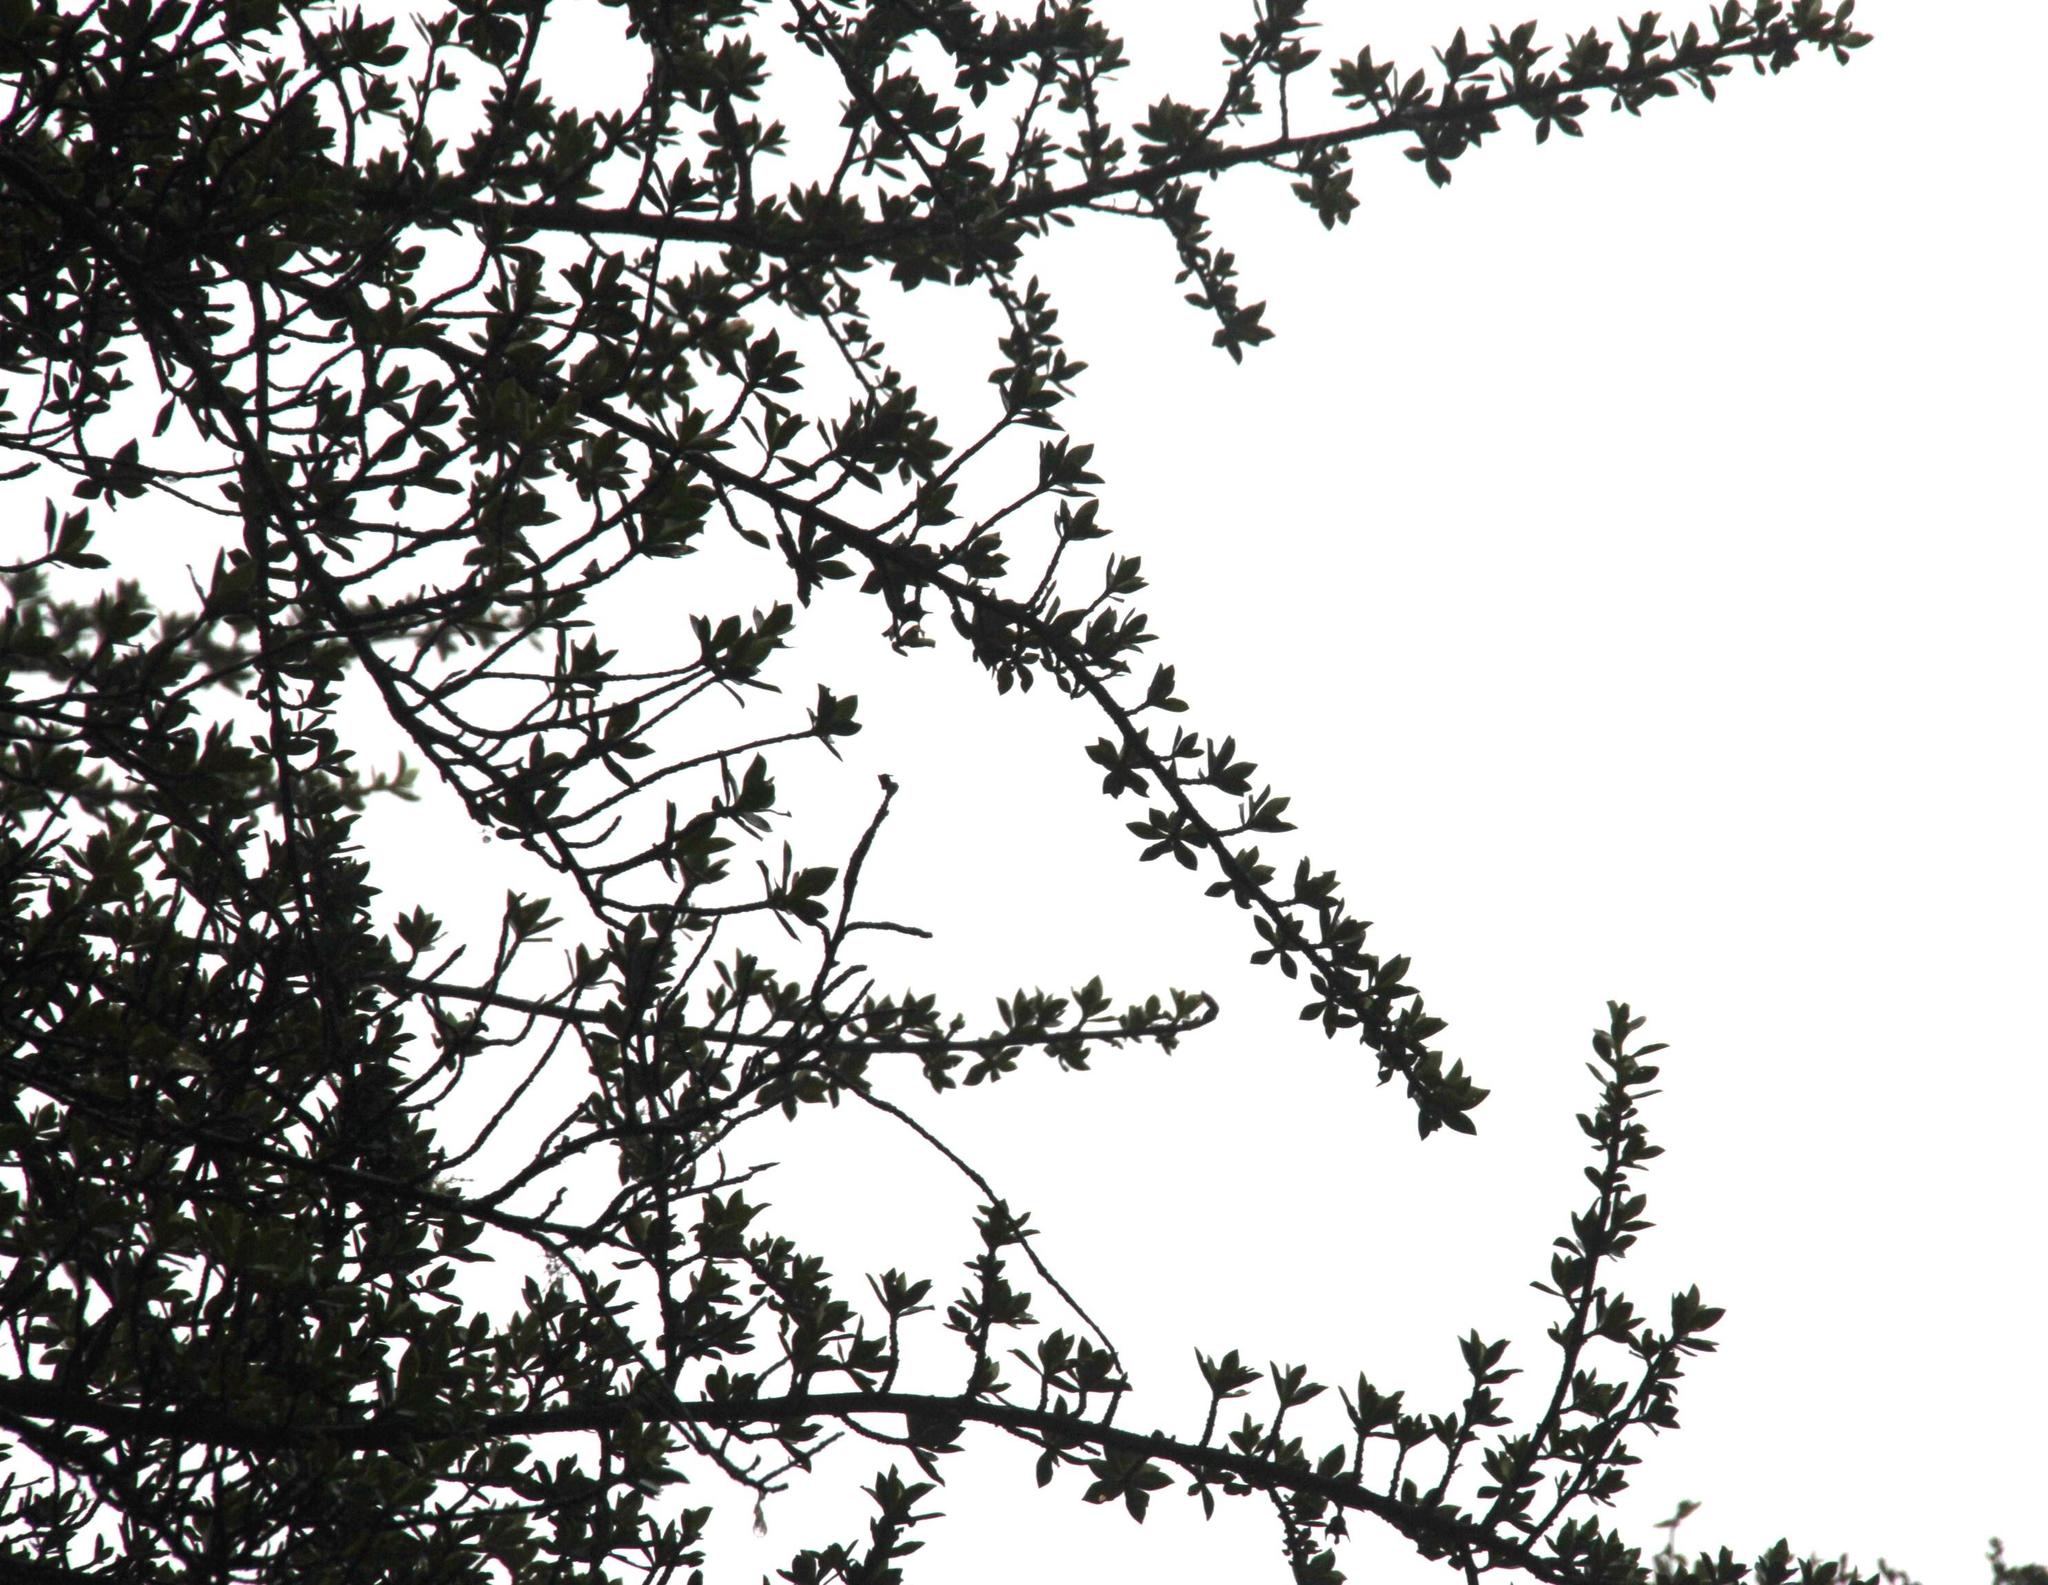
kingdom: Plantae
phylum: Tracheophyta
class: Magnoliopsida
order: Escalloniales
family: Escalloniaceae
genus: Escallonia
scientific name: Escallonia myrtilloides
